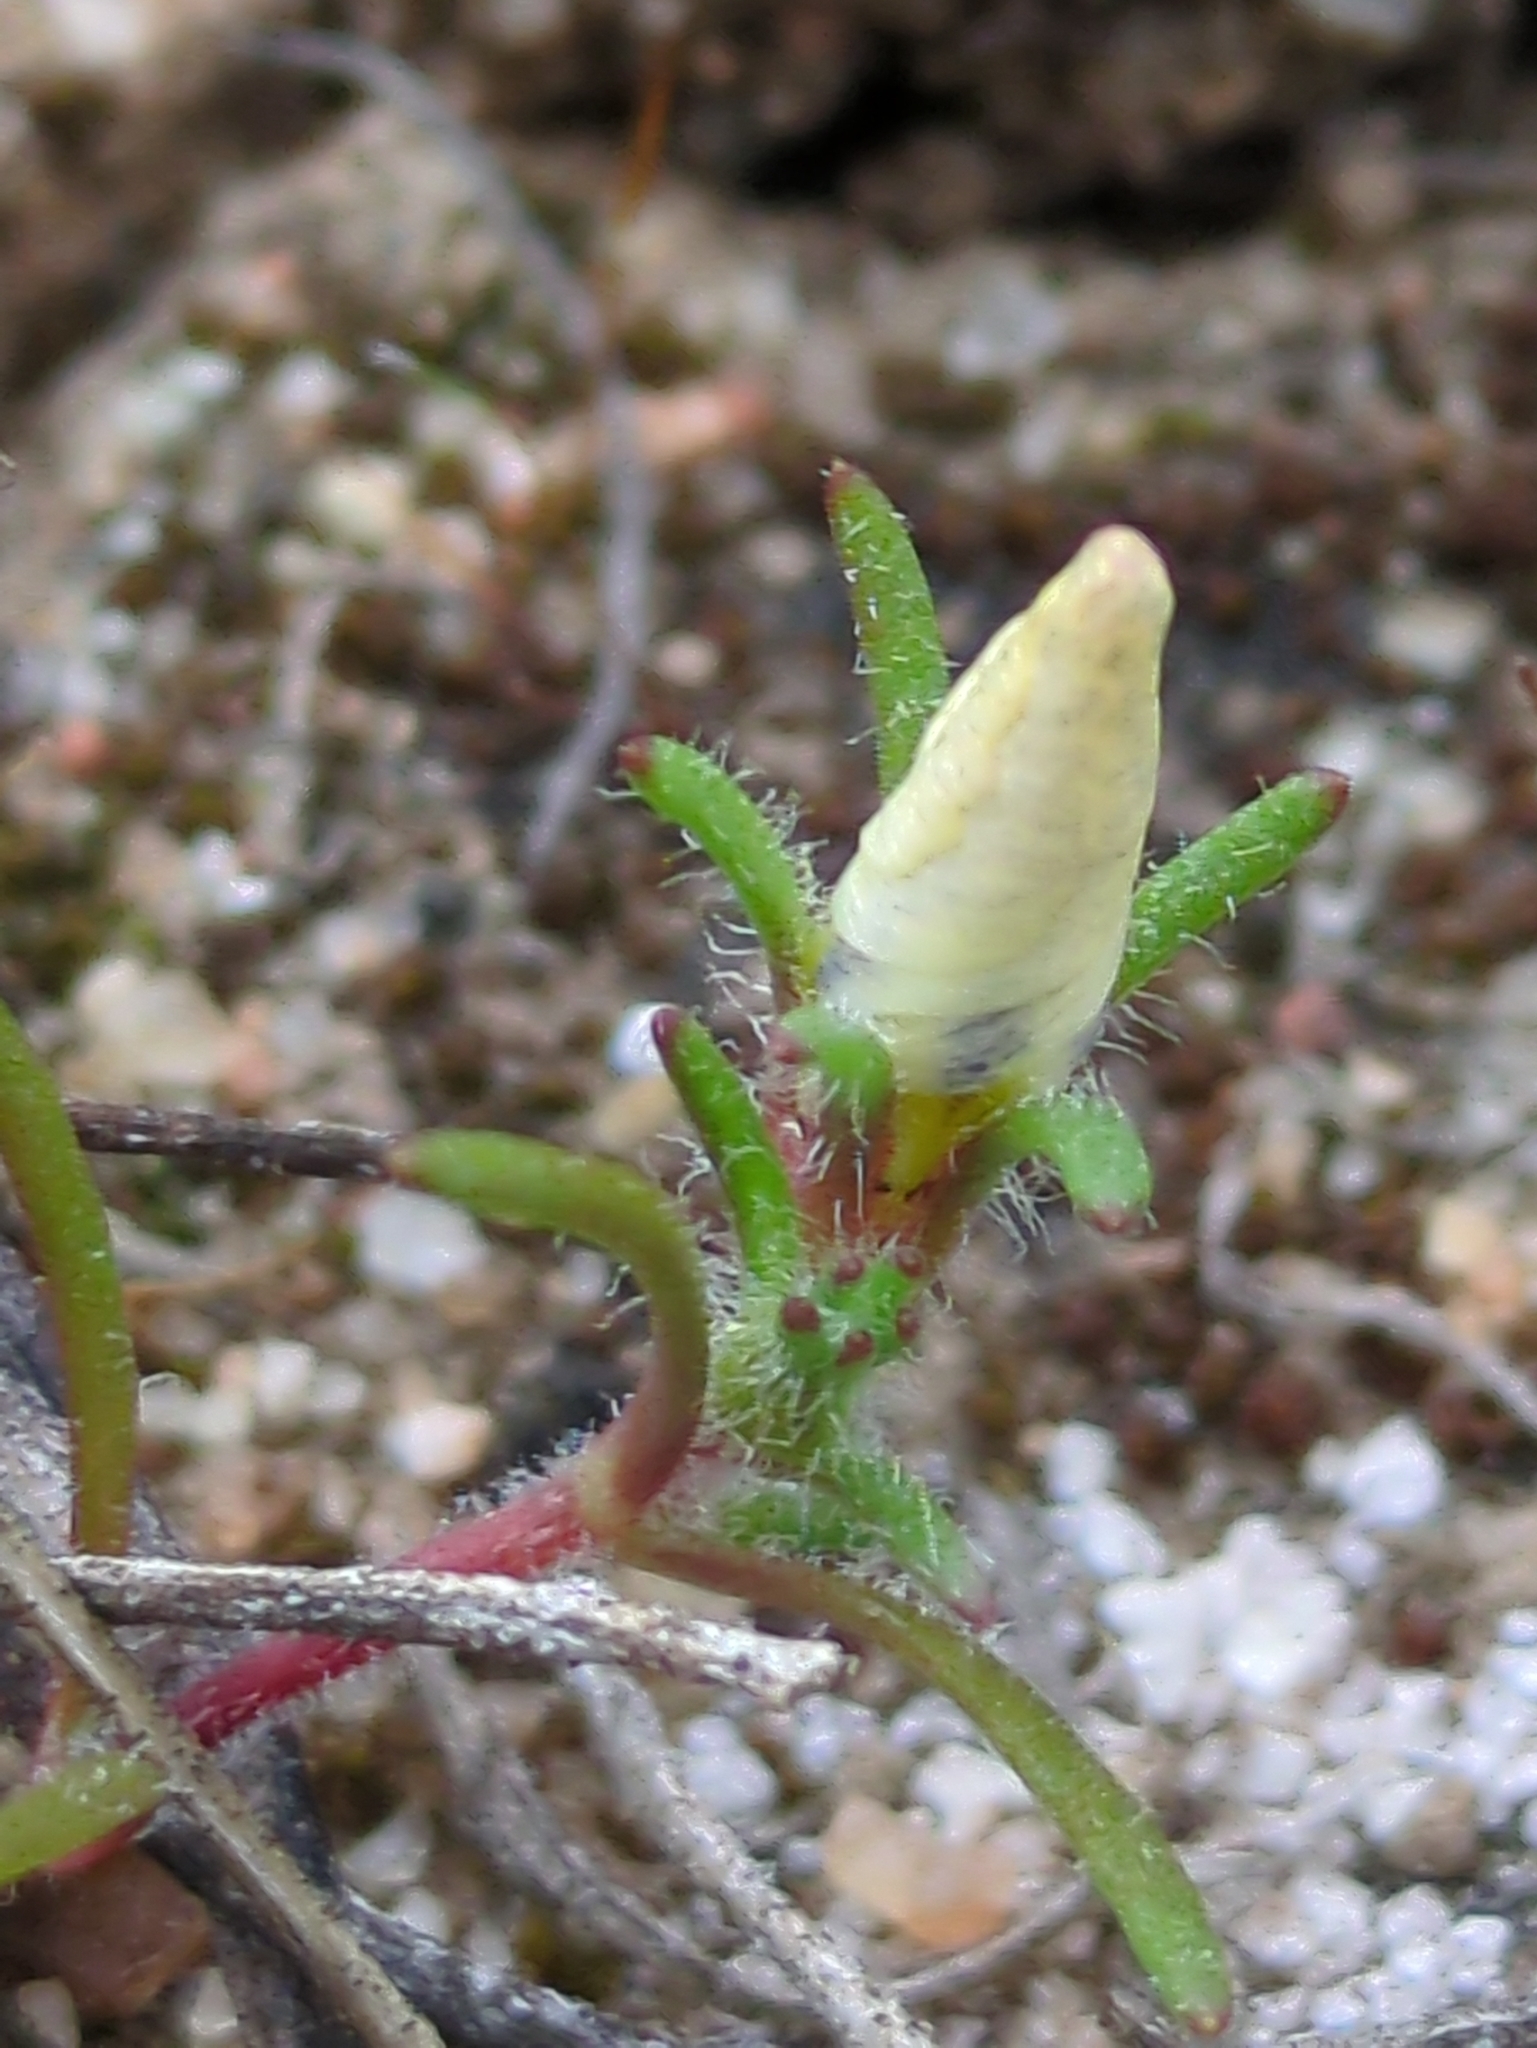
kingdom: Plantae
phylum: Tracheophyta
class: Magnoliopsida
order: Ericales
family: Polemoniaceae
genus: Linanthus
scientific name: Linanthus dianthiflorus
